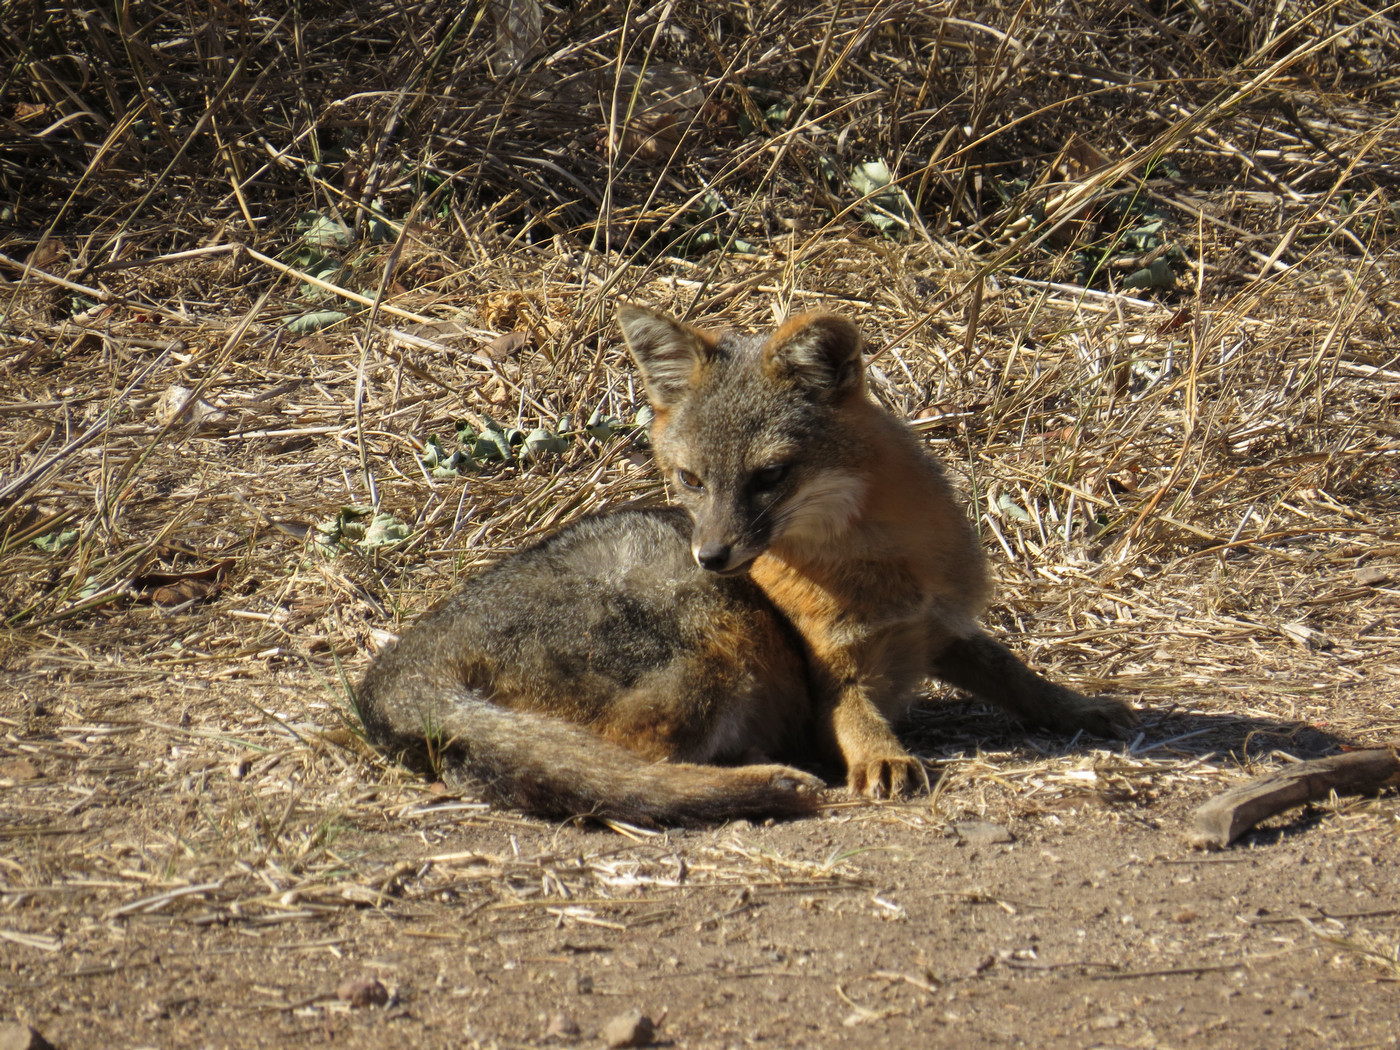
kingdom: Animalia
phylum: Chordata
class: Mammalia
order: Carnivora
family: Canidae
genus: Urocyon
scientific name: Urocyon littoralis
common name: Island gray fox
